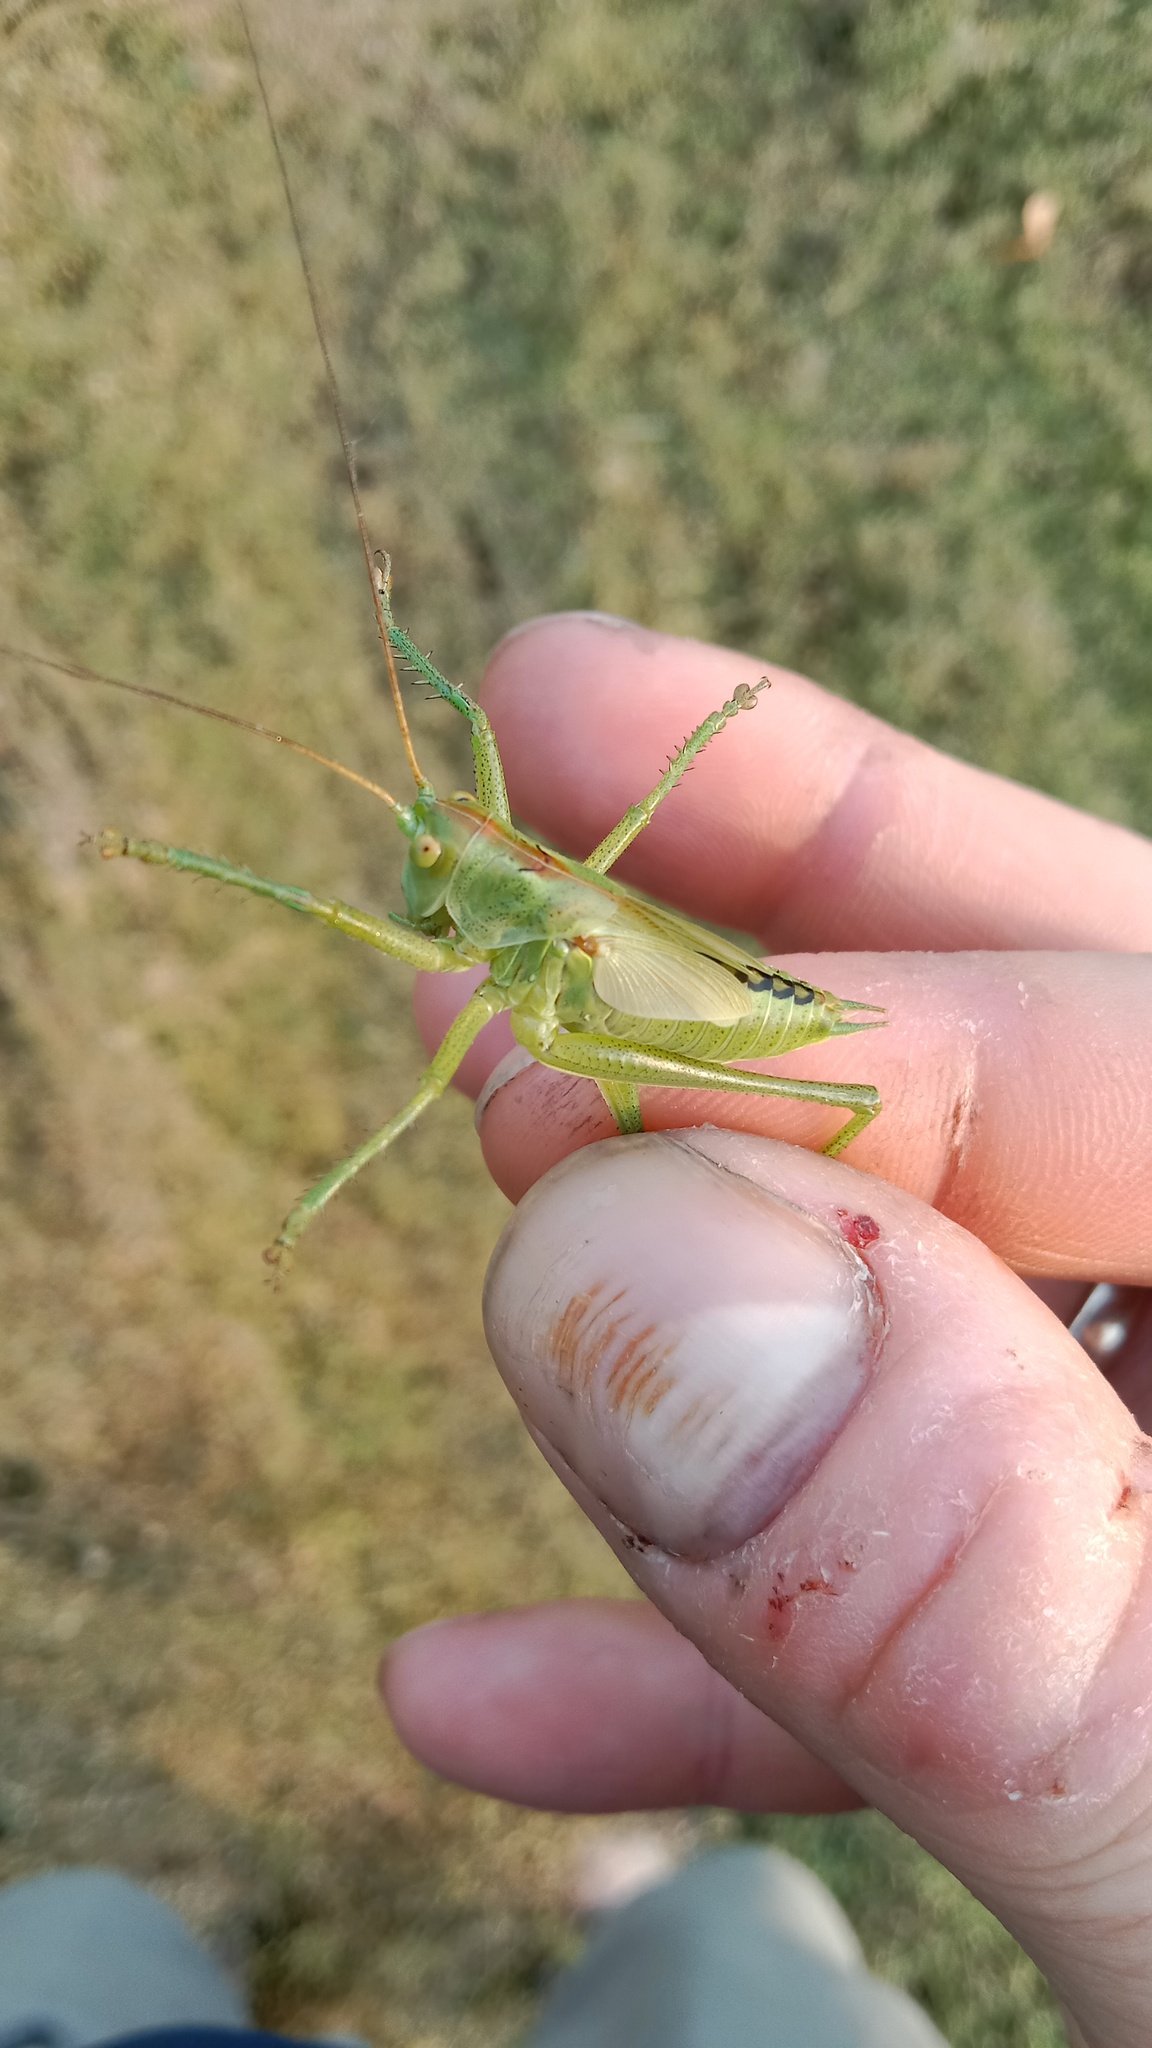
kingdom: Animalia
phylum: Arthropoda
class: Insecta
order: Orthoptera
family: Tettigoniidae
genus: Tettigonia
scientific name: Tettigonia viridissima
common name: Great green bush-cricket
